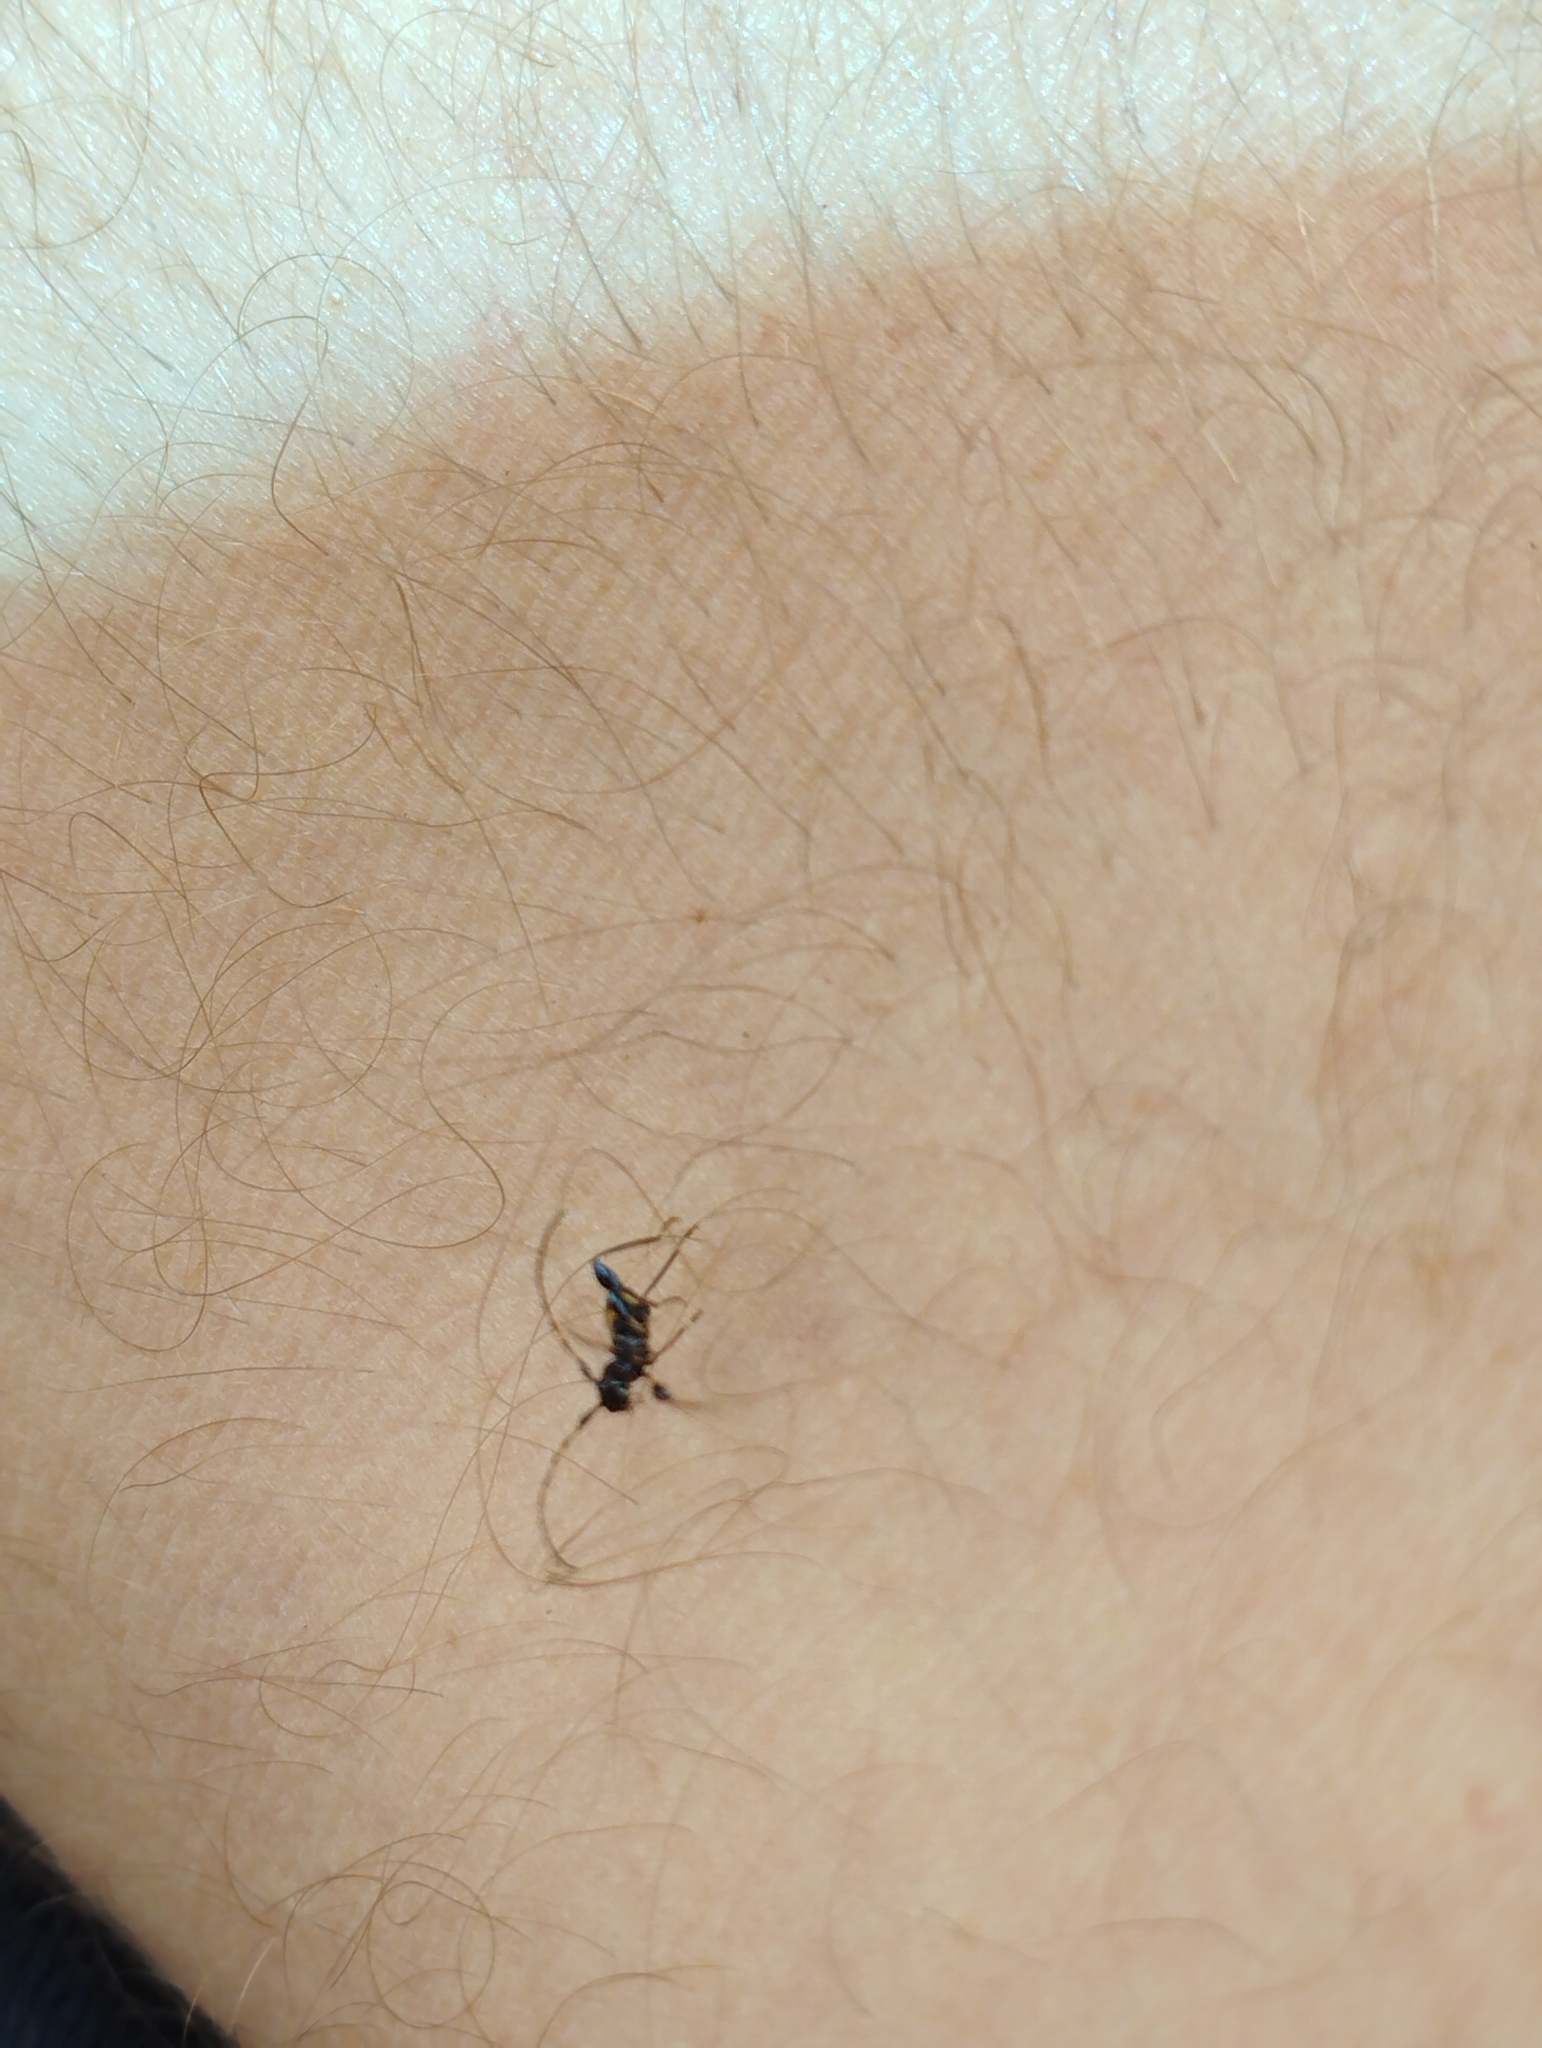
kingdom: Animalia
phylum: Arthropoda
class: Insecta
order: Coleoptera
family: Cerambycidae
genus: Zorion
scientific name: Zorion guttigerum
